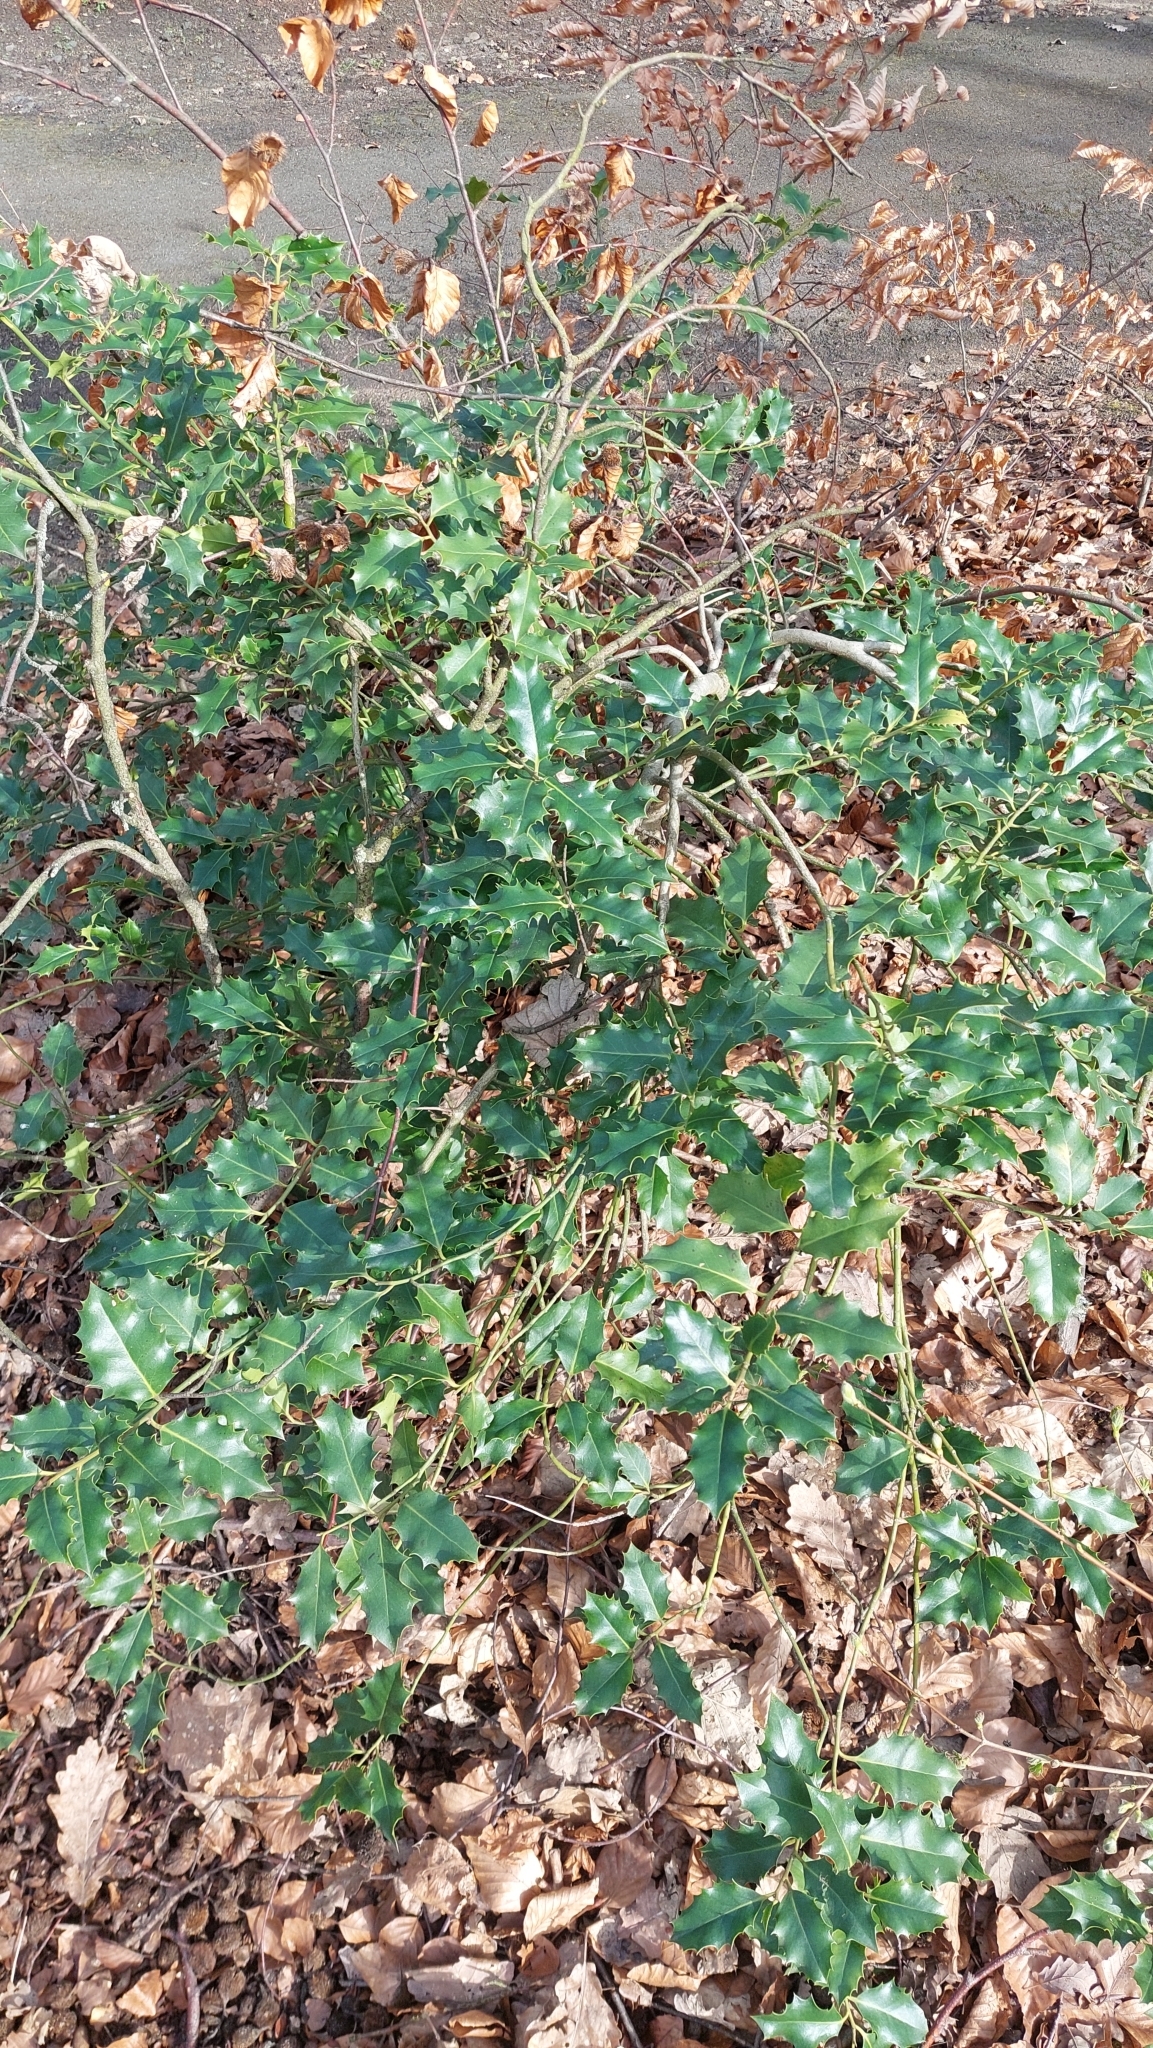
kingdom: Plantae
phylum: Tracheophyta
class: Magnoliopsida
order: Aquifoliales
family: Aquifoliaceae
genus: Ilex
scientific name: Ilex aquifolium
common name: English holly
